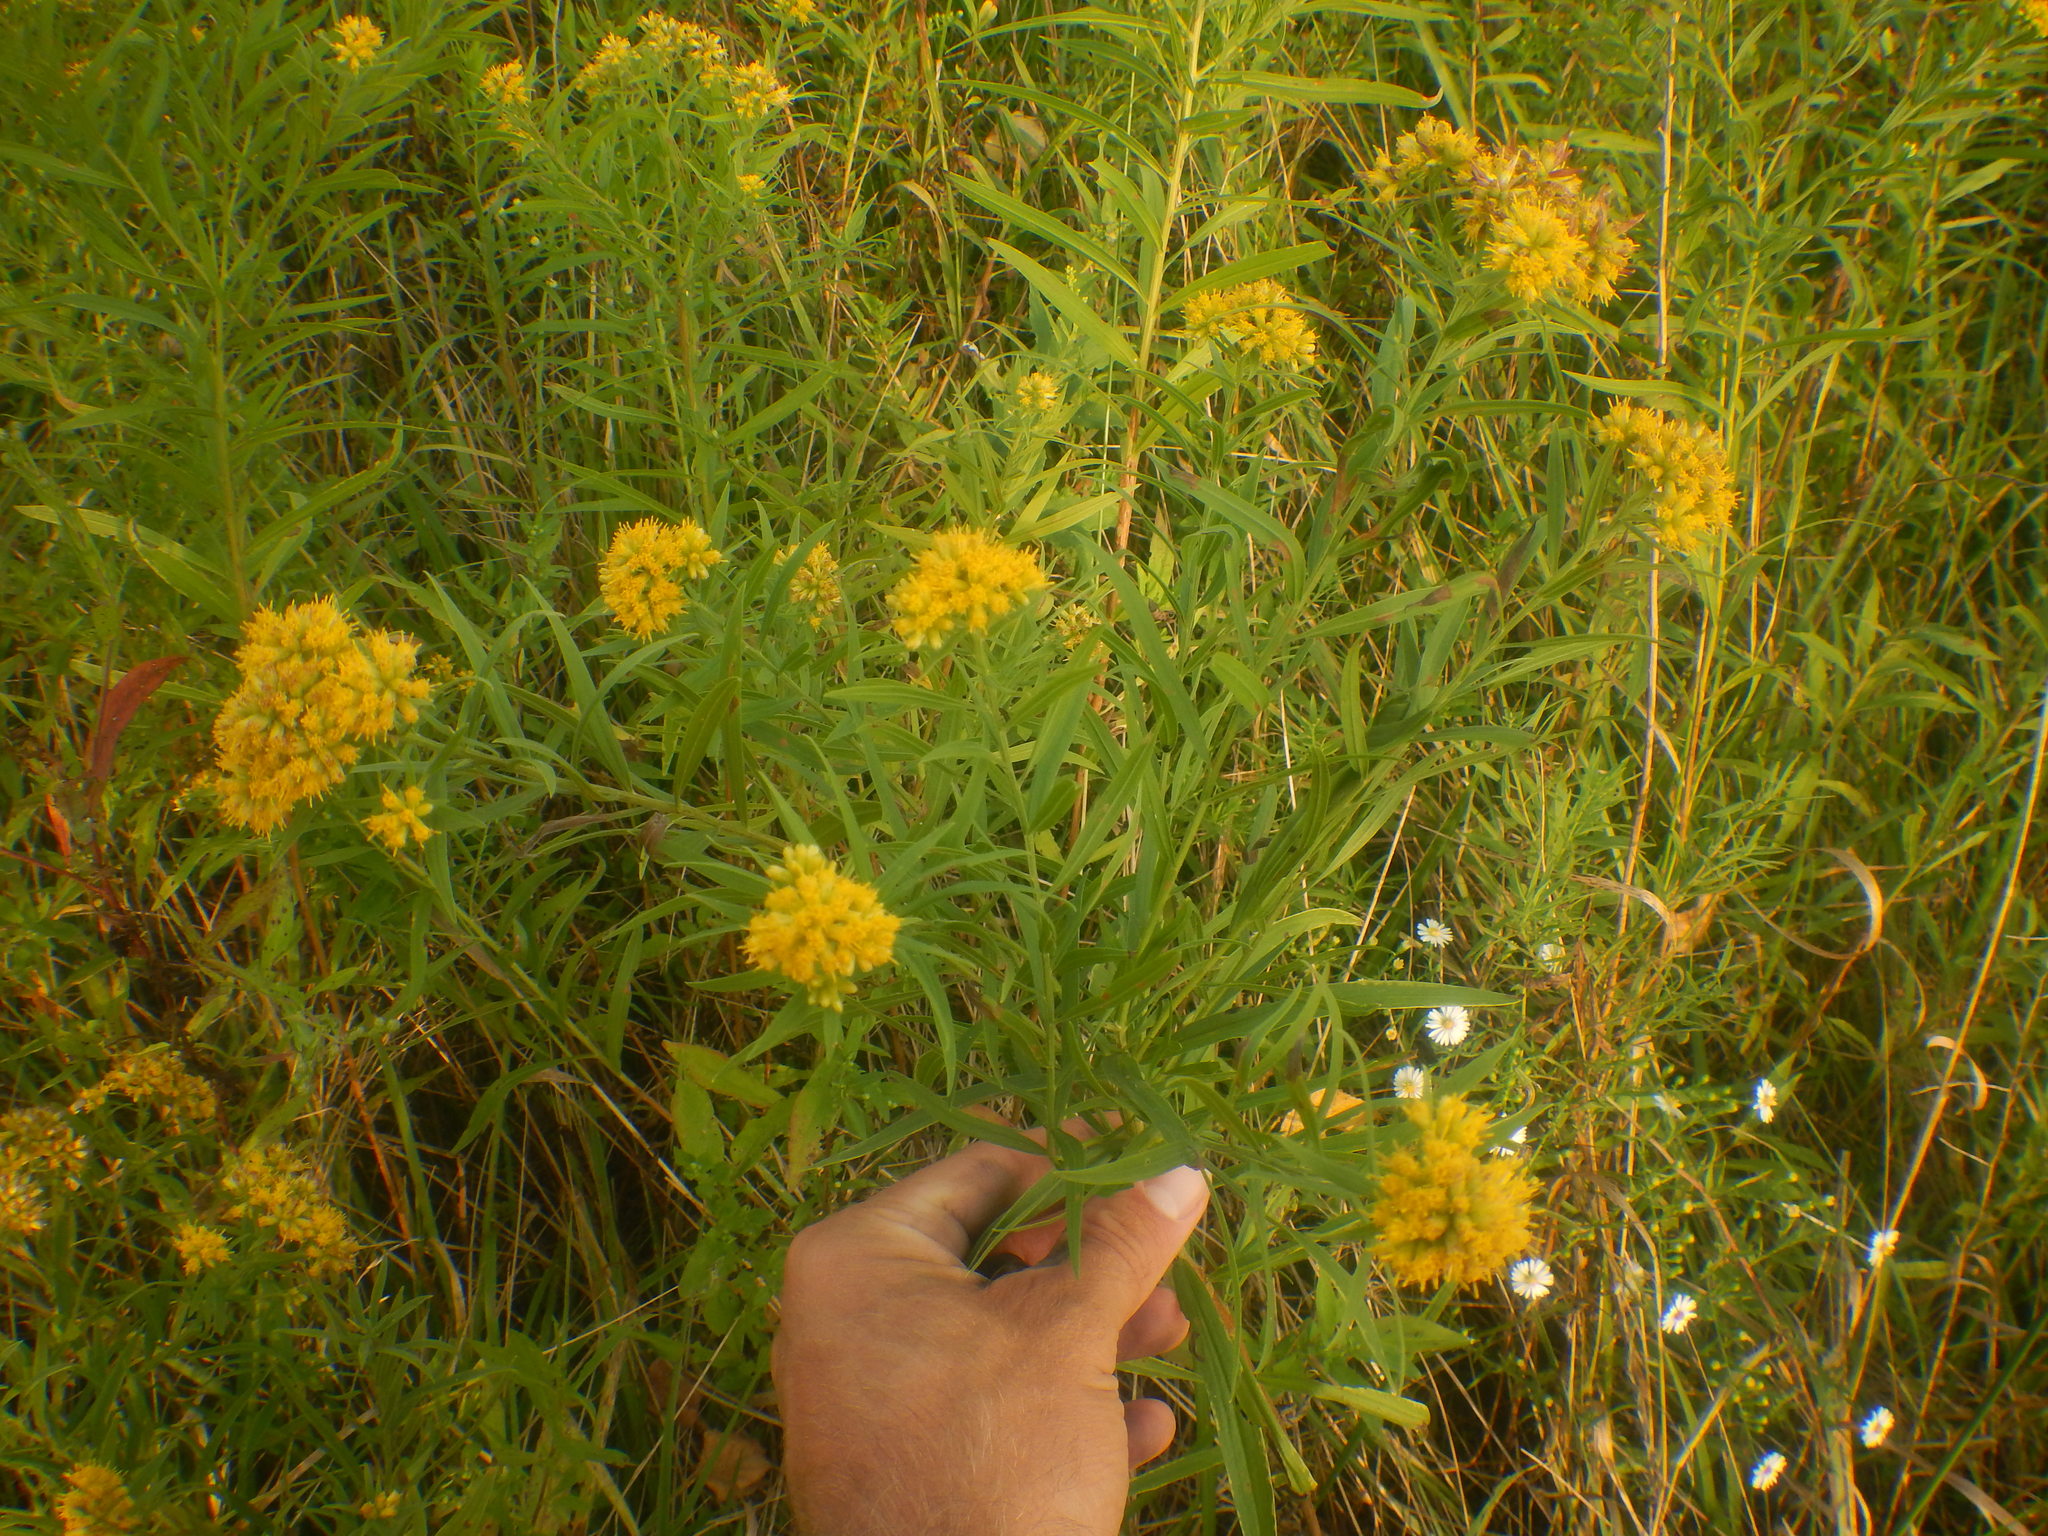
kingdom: Plantae
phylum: Tracheophyta
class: Magnoliopsida
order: Asterales
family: Asteraceae
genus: Euthamia
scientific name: Euthamia graminifolia
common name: Common goldentop
